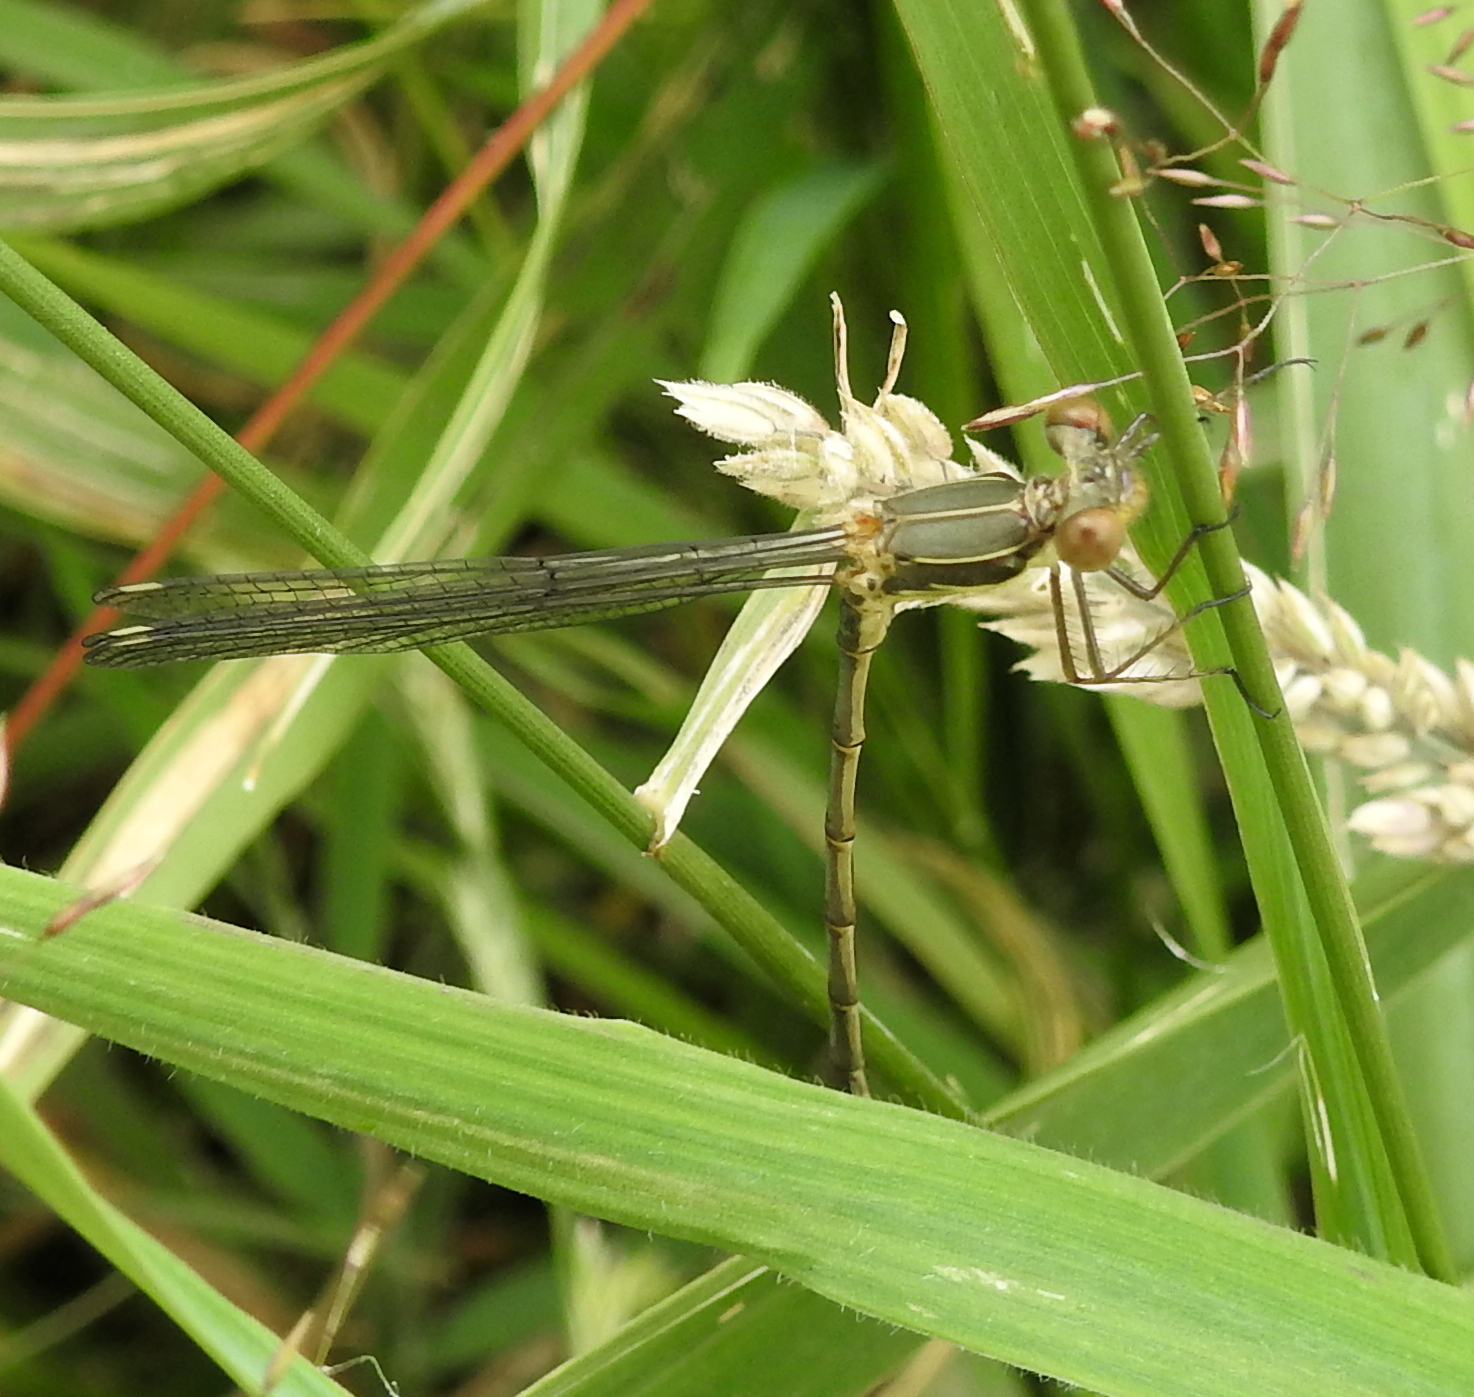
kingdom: Animalia
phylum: Arthropoda
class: Insecta
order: Odonata
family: Lestidae
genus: Chalcolestes
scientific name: Chalcolestes viridis
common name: Green emerald damselfly
